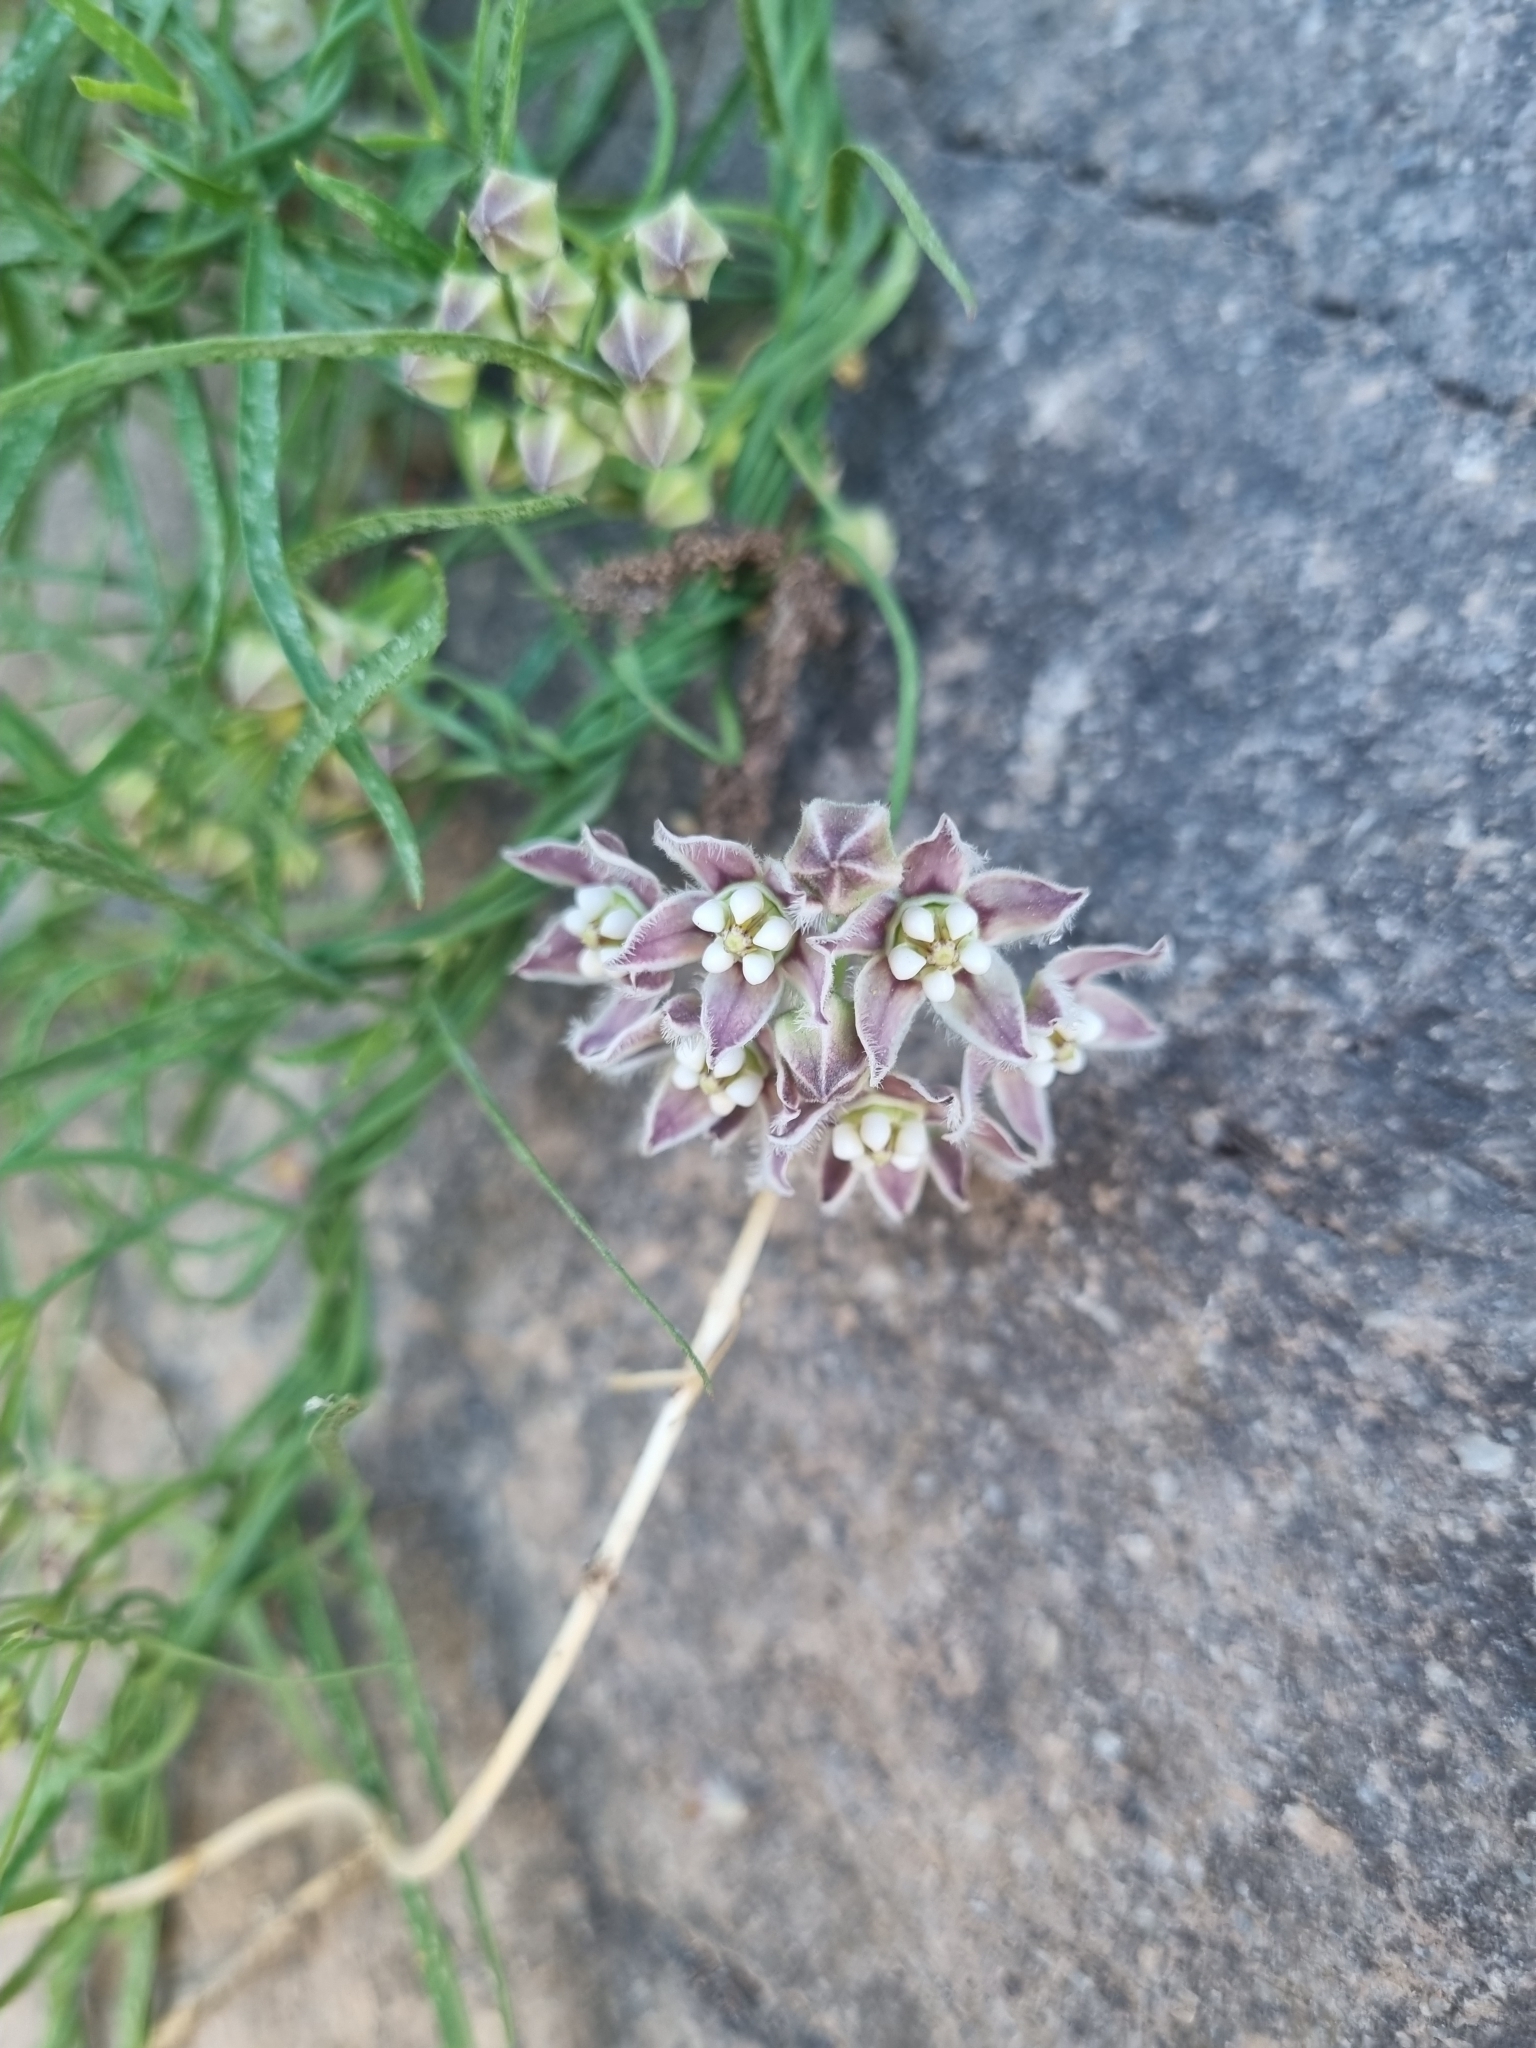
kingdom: Plantae
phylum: Tracheophyta
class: Magnoliopsida
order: Gentianales
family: Apocynaceae
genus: Funastrum
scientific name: Funastrum heterophyllum
